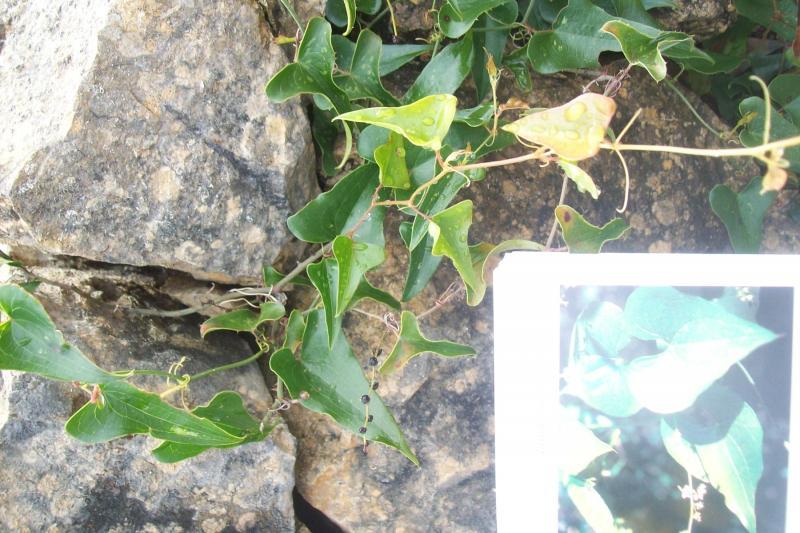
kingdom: Plantae
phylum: Tracheophyta
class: Liliopsida
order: Liliales
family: Smilacaceae
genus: Smilax
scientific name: Smilax aspera
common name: Common smilax
